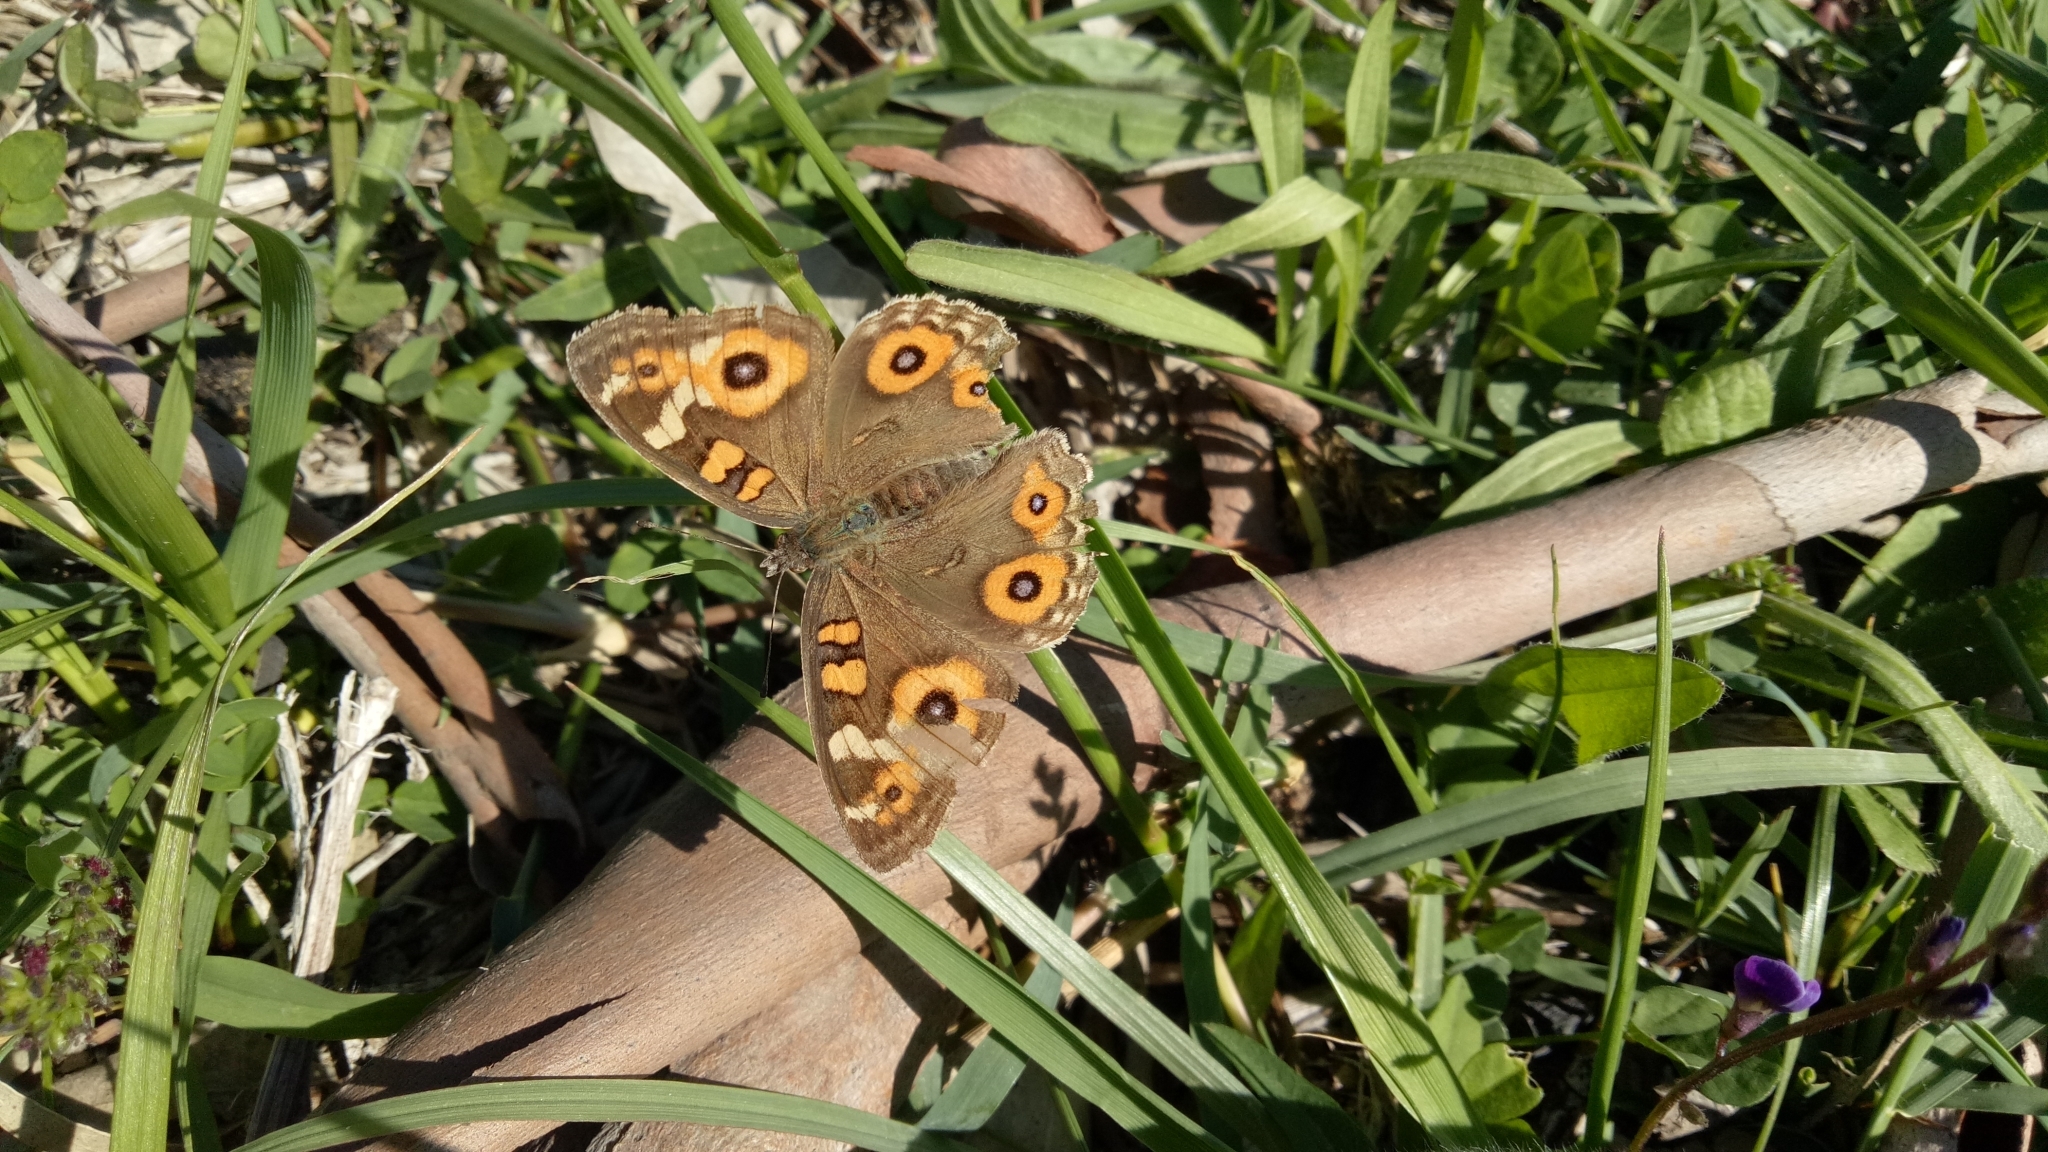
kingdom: Animalia
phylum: Arthropoda
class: Insecta
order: Lepidoptera
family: Nymphalidae
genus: Junonia
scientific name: Junonia villida
